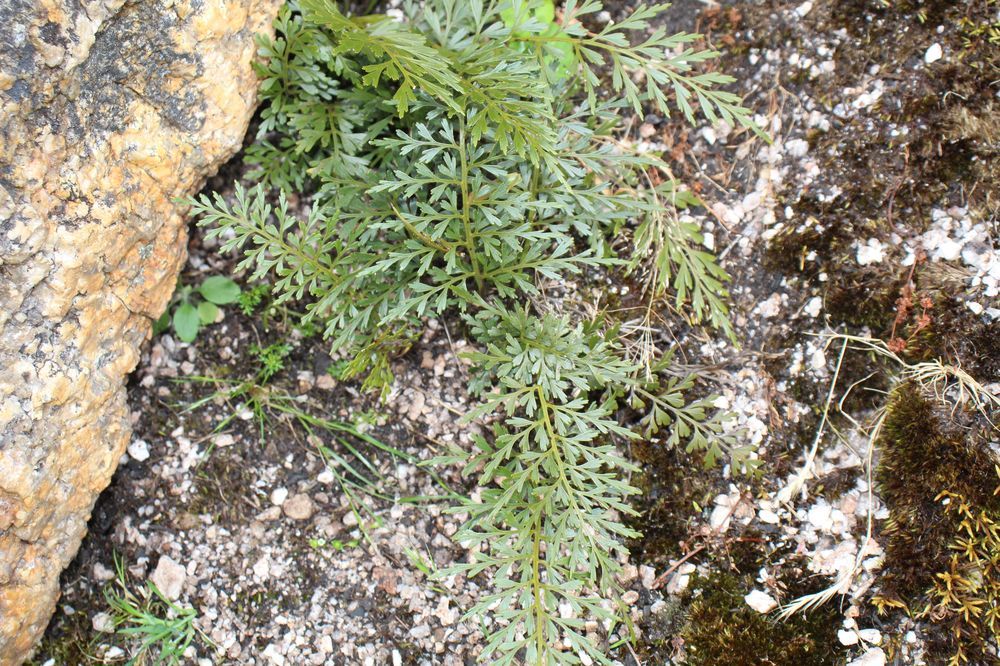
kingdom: Plantae
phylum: Tracheophyta
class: Polypodiopsida
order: Polypodiales
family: Aspleniaceae
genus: Asplenium
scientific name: Asplenium aethiopicum
